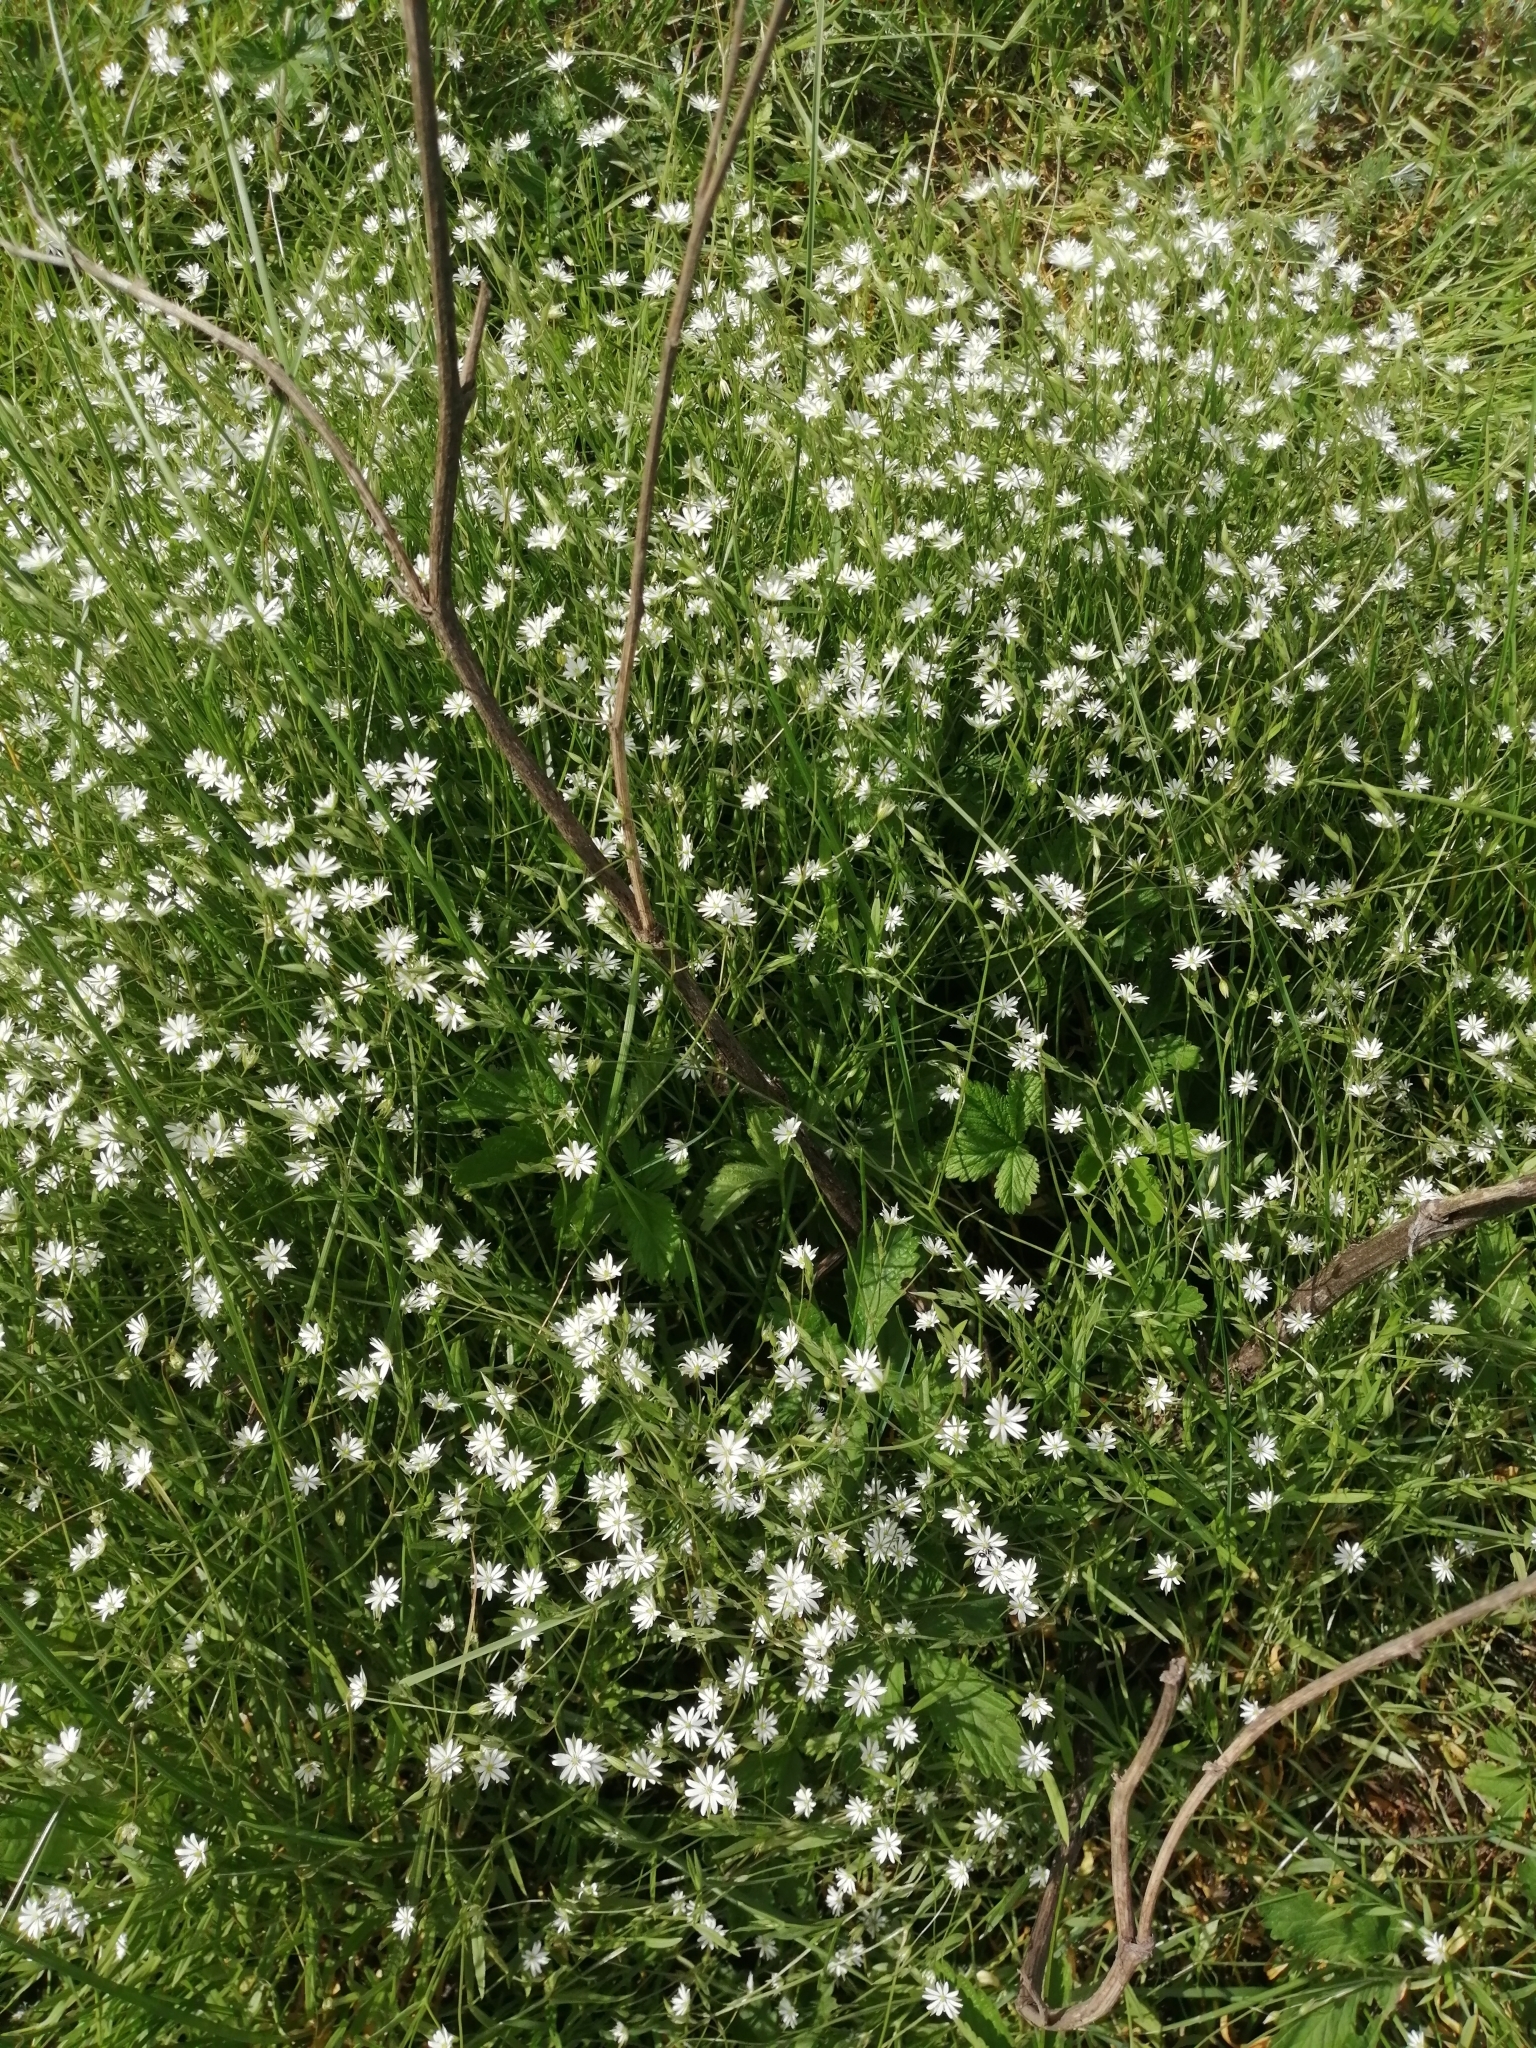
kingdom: Plantae
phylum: Tracheophyta
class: Magnoliopsida
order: Caryophyllales
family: Caryophyllaceae
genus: Stellaria
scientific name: Stellaria graminea
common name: Grass-like starwort
